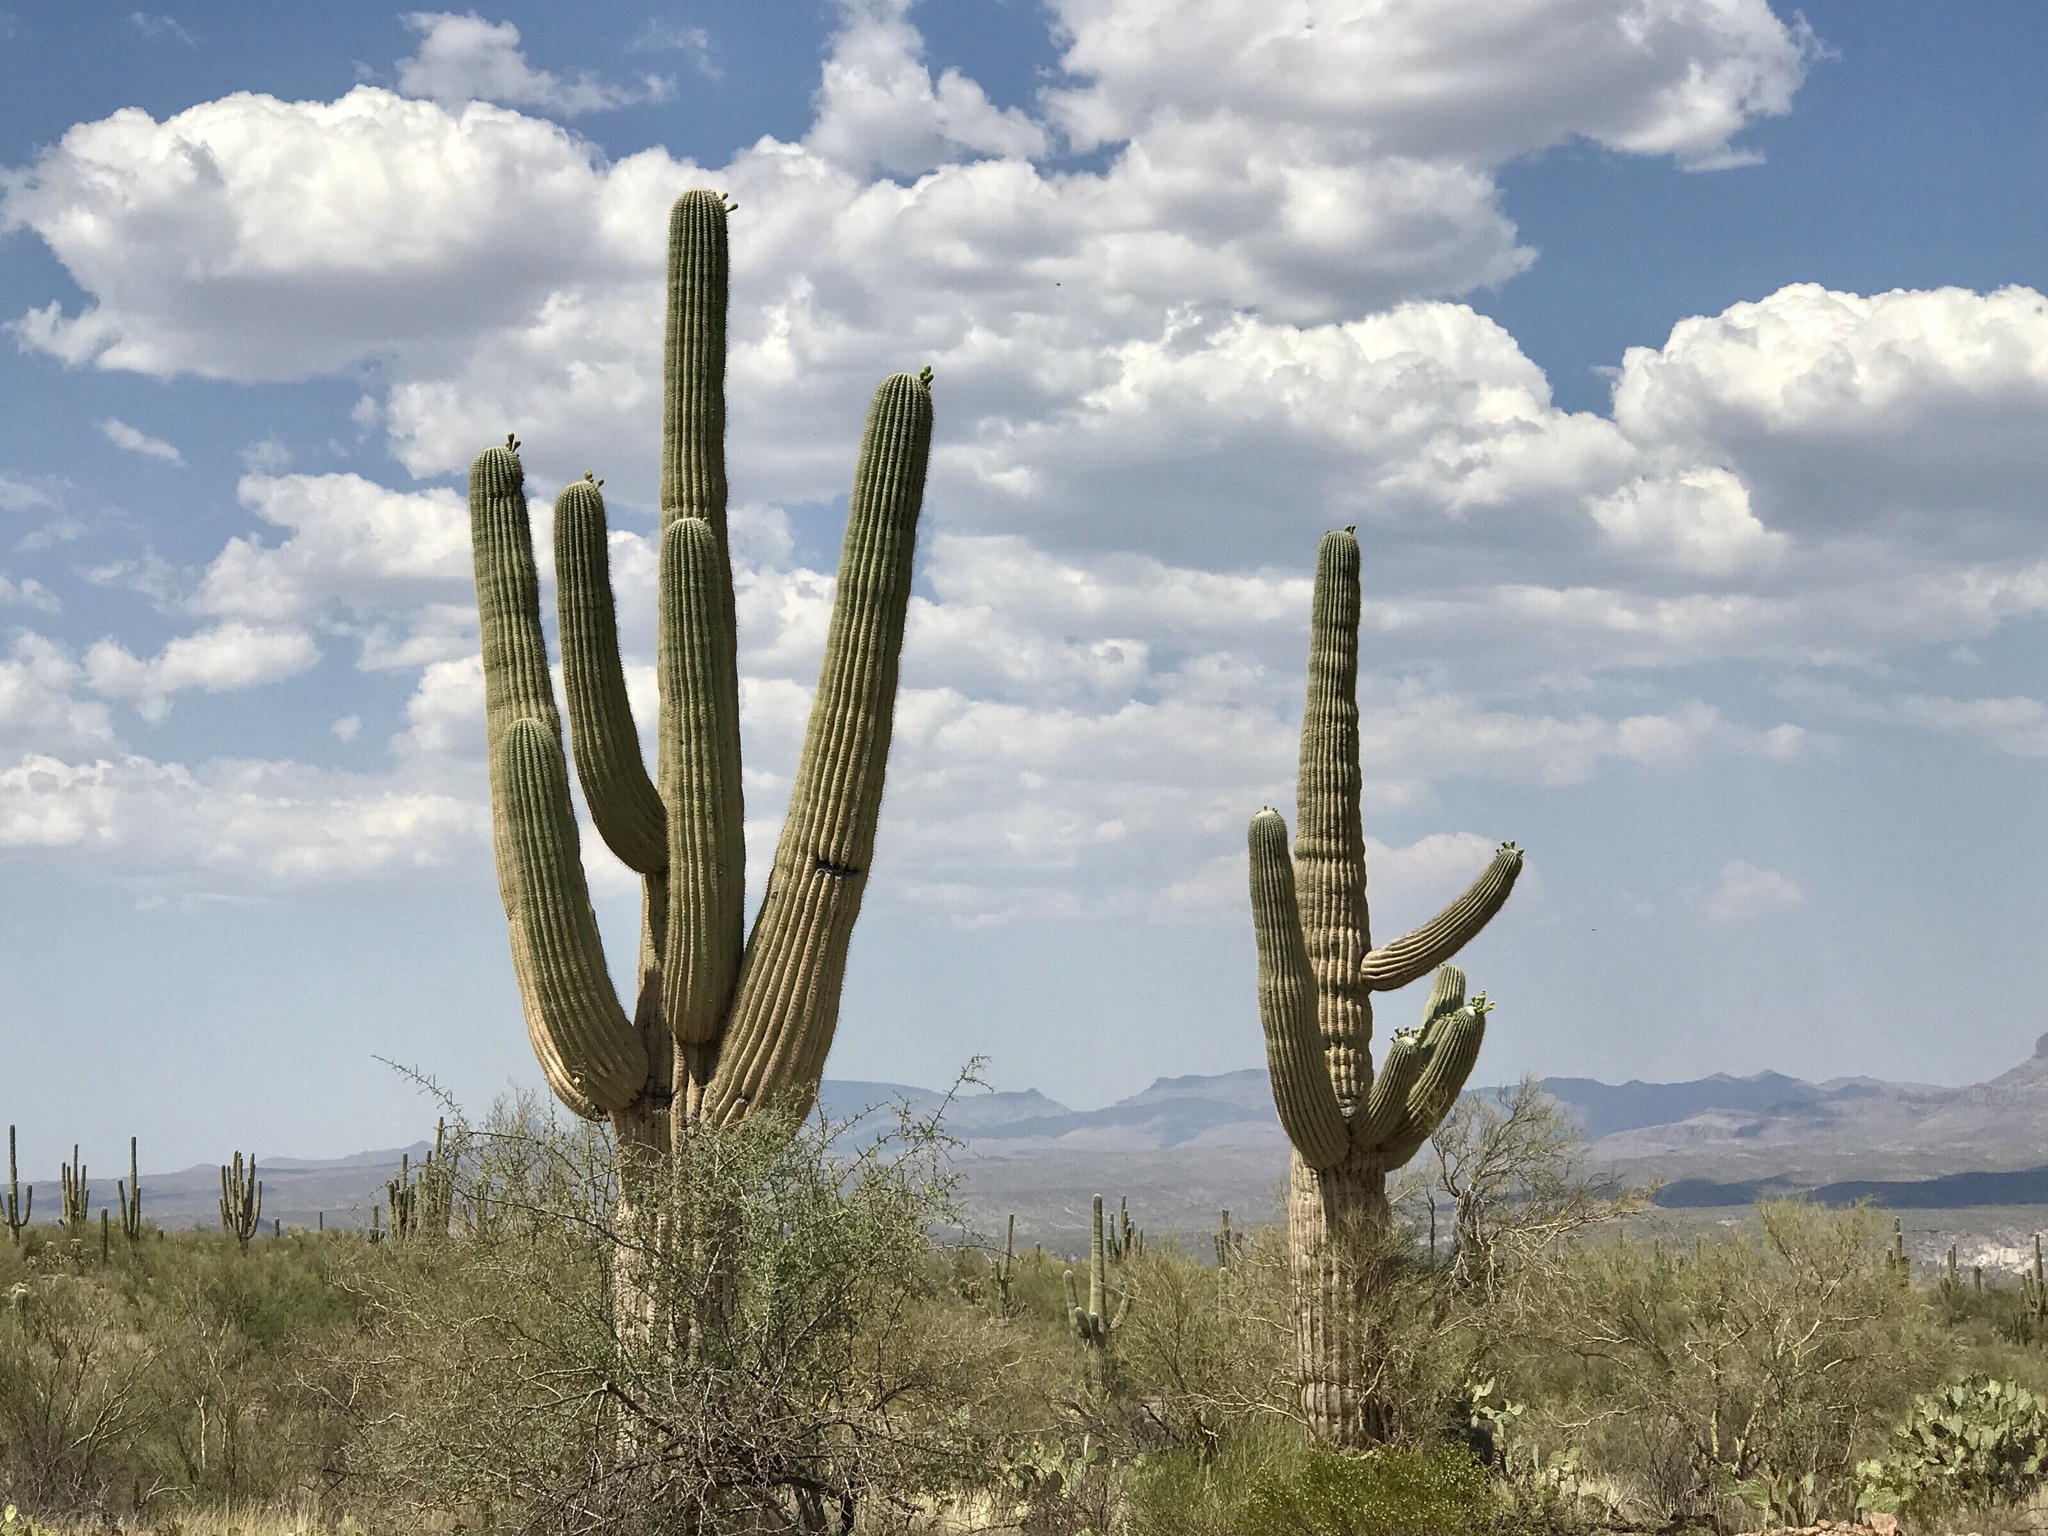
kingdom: Plantae
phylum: Tracheophyta
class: Magnoliopsida
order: Caryophyllales
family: Cactaceae
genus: Carnegiea
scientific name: Carnegiea gigantea
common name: Saguaro
